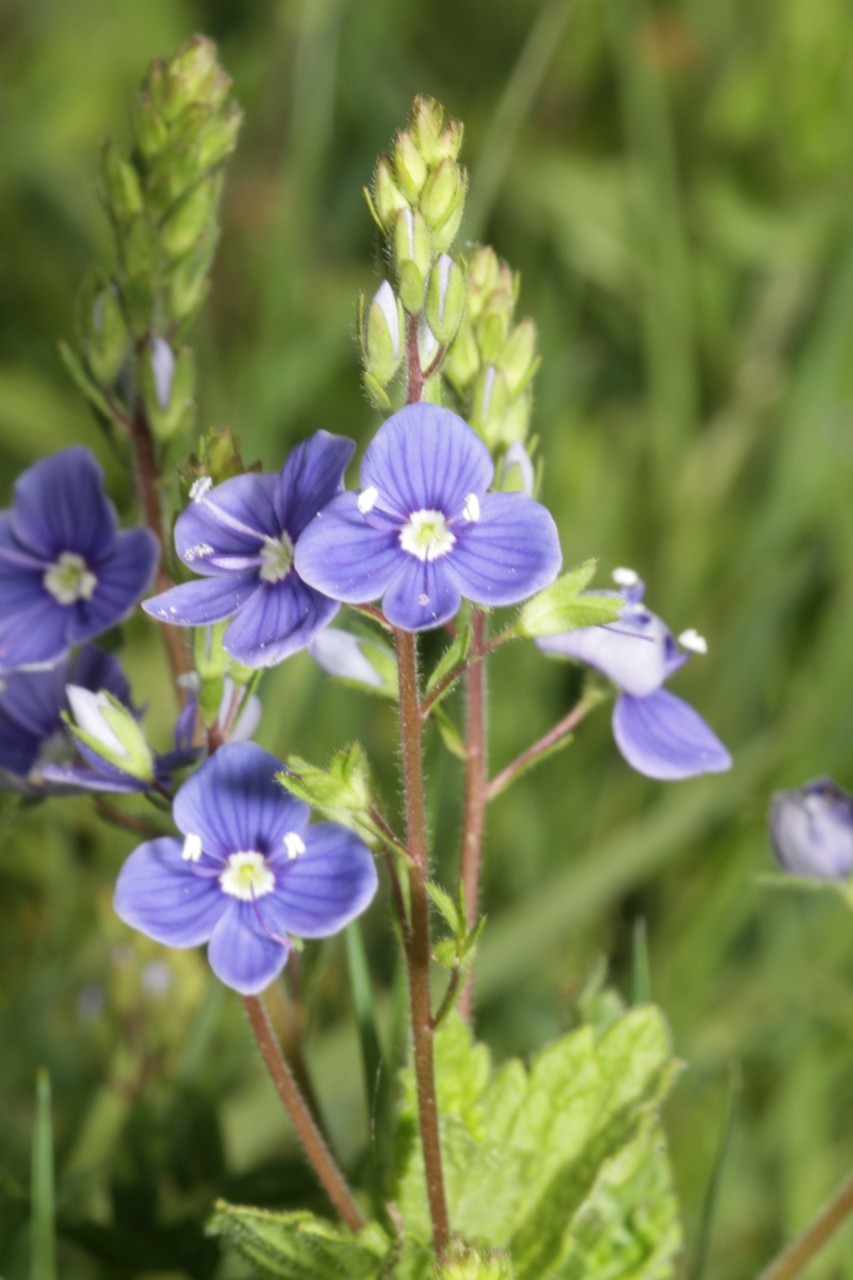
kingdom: Plantae
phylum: Tracheophyta
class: Magnoliopsida
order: Lamiales
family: Plantaginaceae
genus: Veronica
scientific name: Veronica chamaedrys
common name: Germander speedwell
